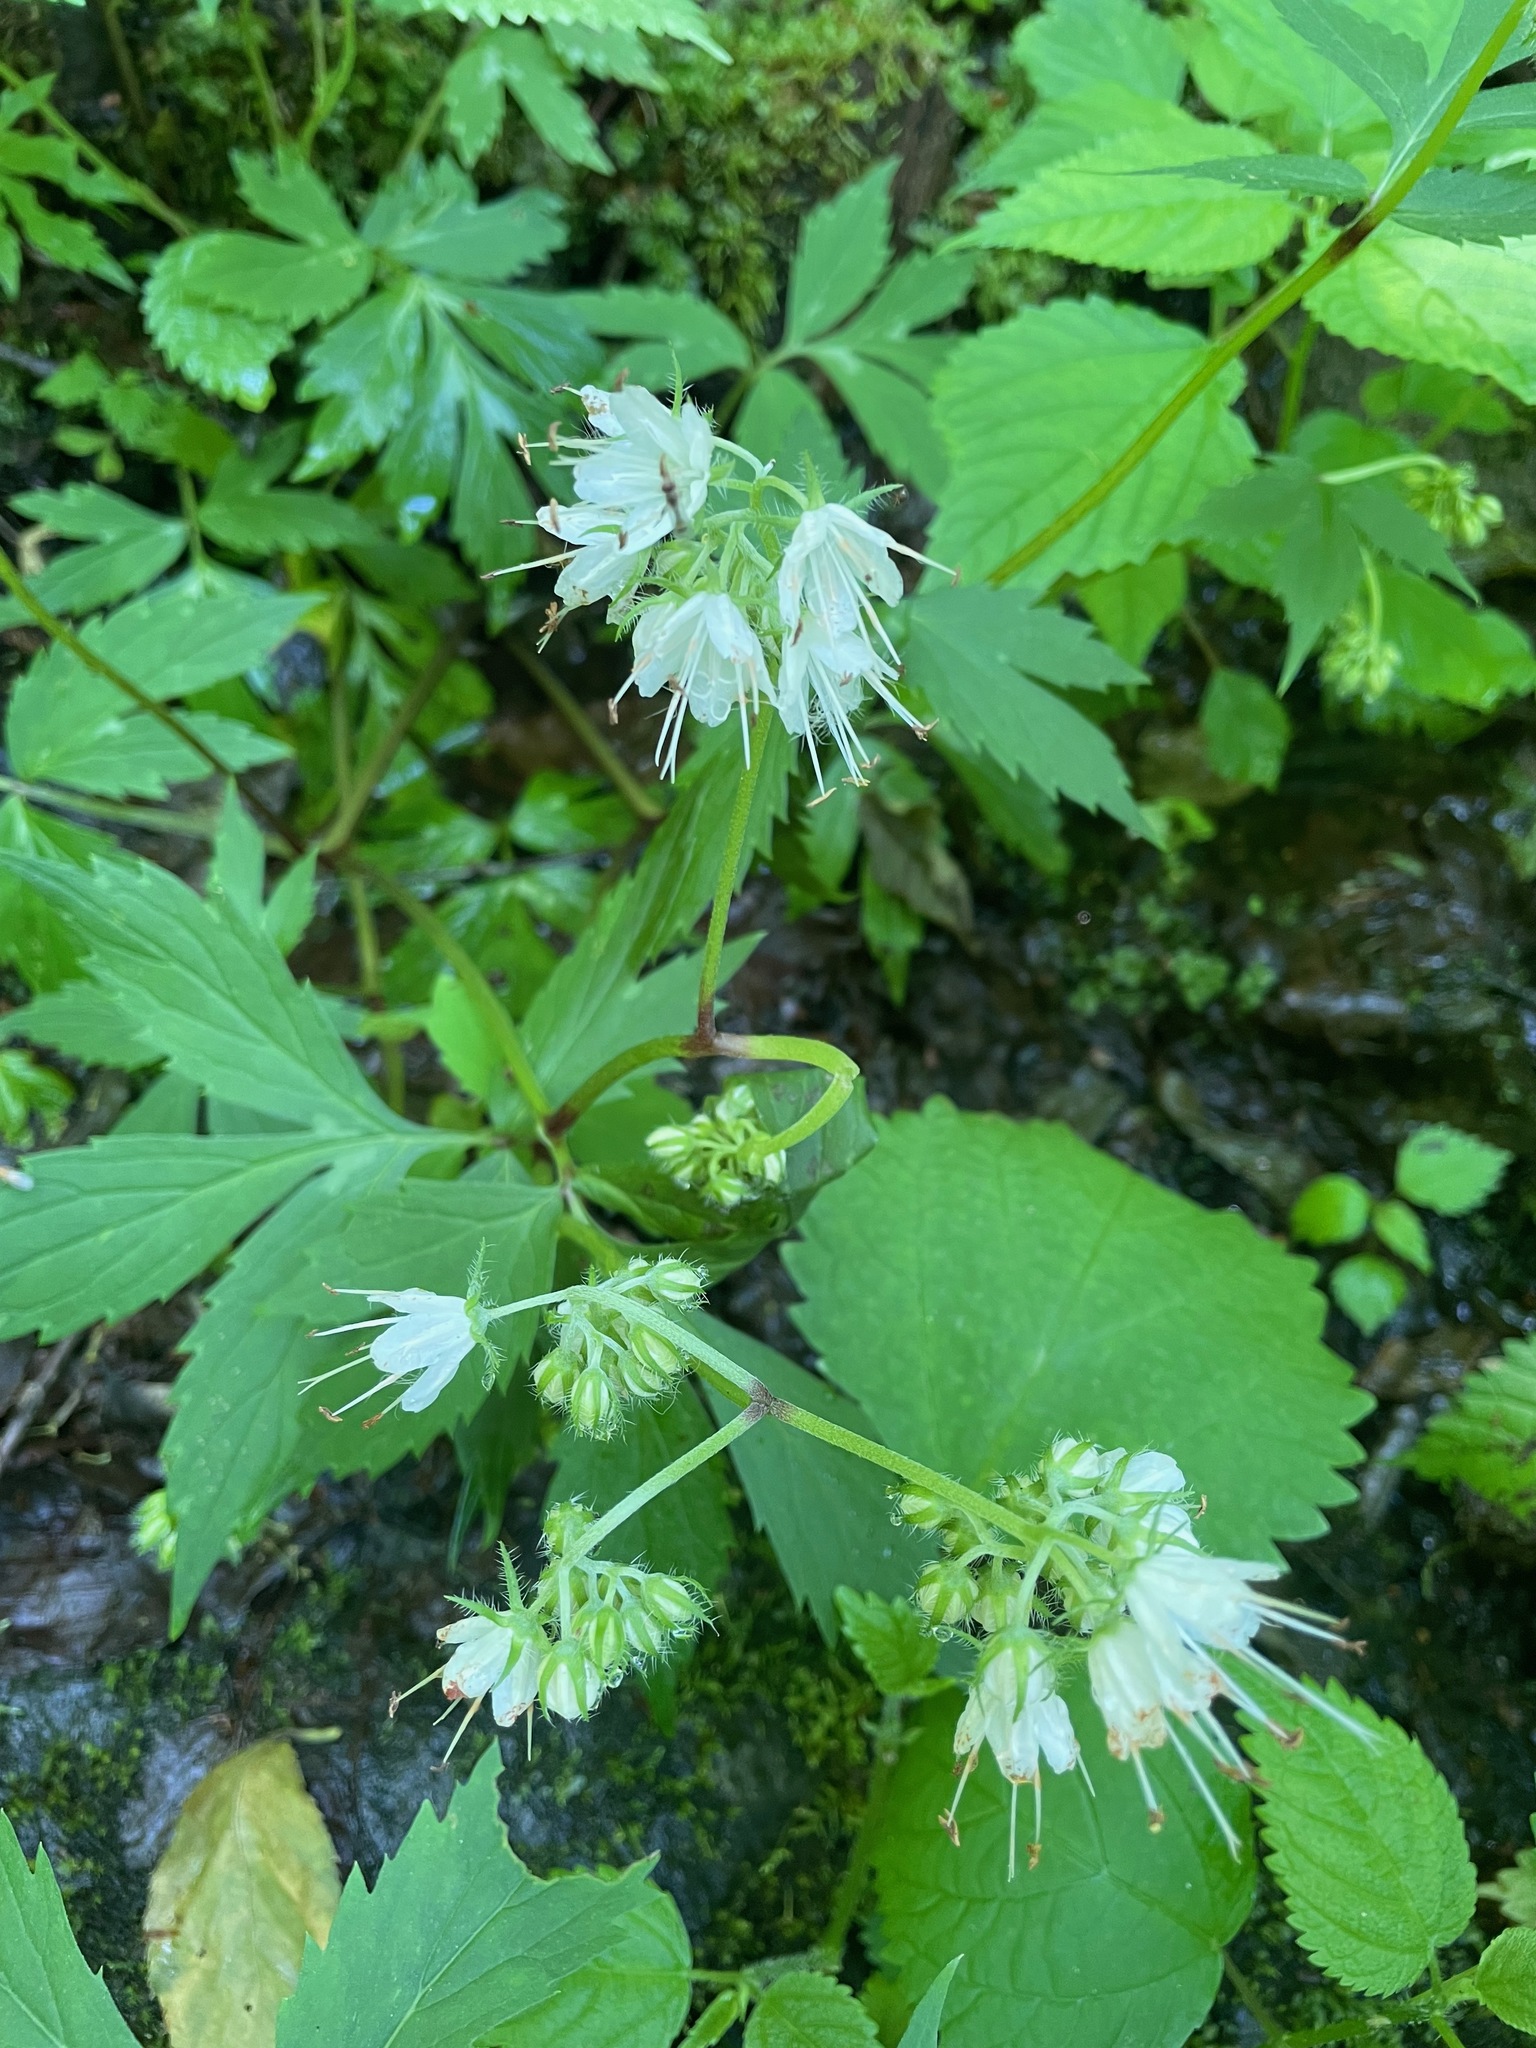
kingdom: Plantae
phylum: Tracheophyta
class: Magnoliopsida
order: Boraginales
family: Hydrophyllaceae
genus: Hydrophyllum
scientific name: Hydrophyllum virginianum
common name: Virginia waterleaf
